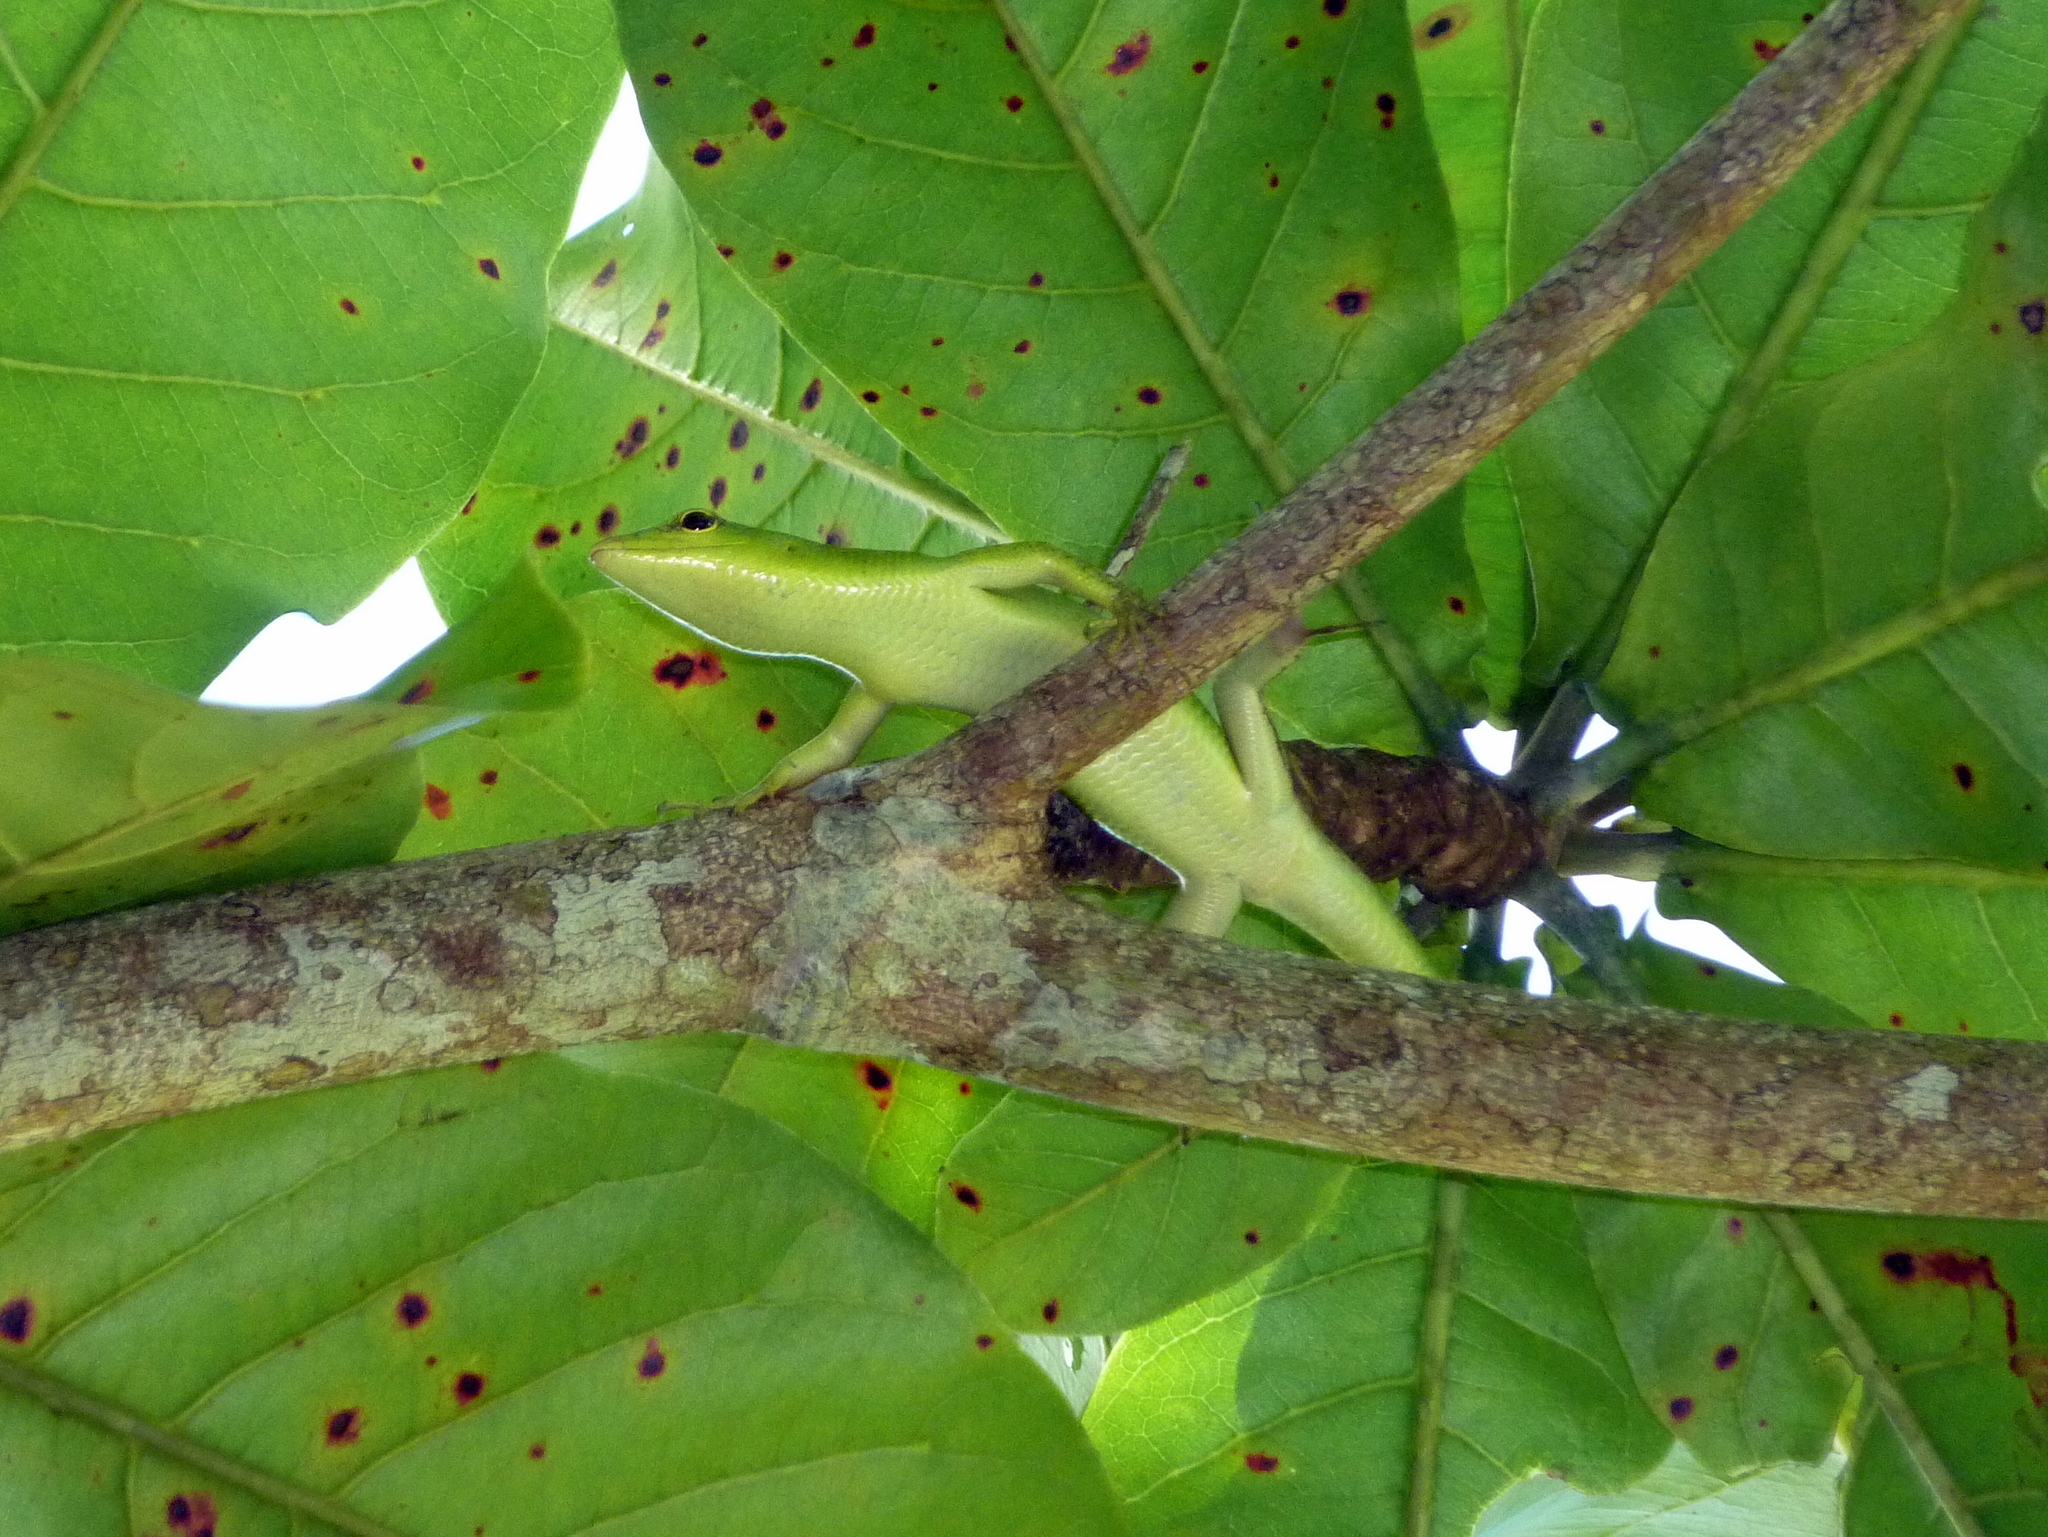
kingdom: Animalia
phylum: Chordata
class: Squamata
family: Scincidae
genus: Lamprolepis
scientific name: Lamprolepis smaragdina
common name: Emerald skink
